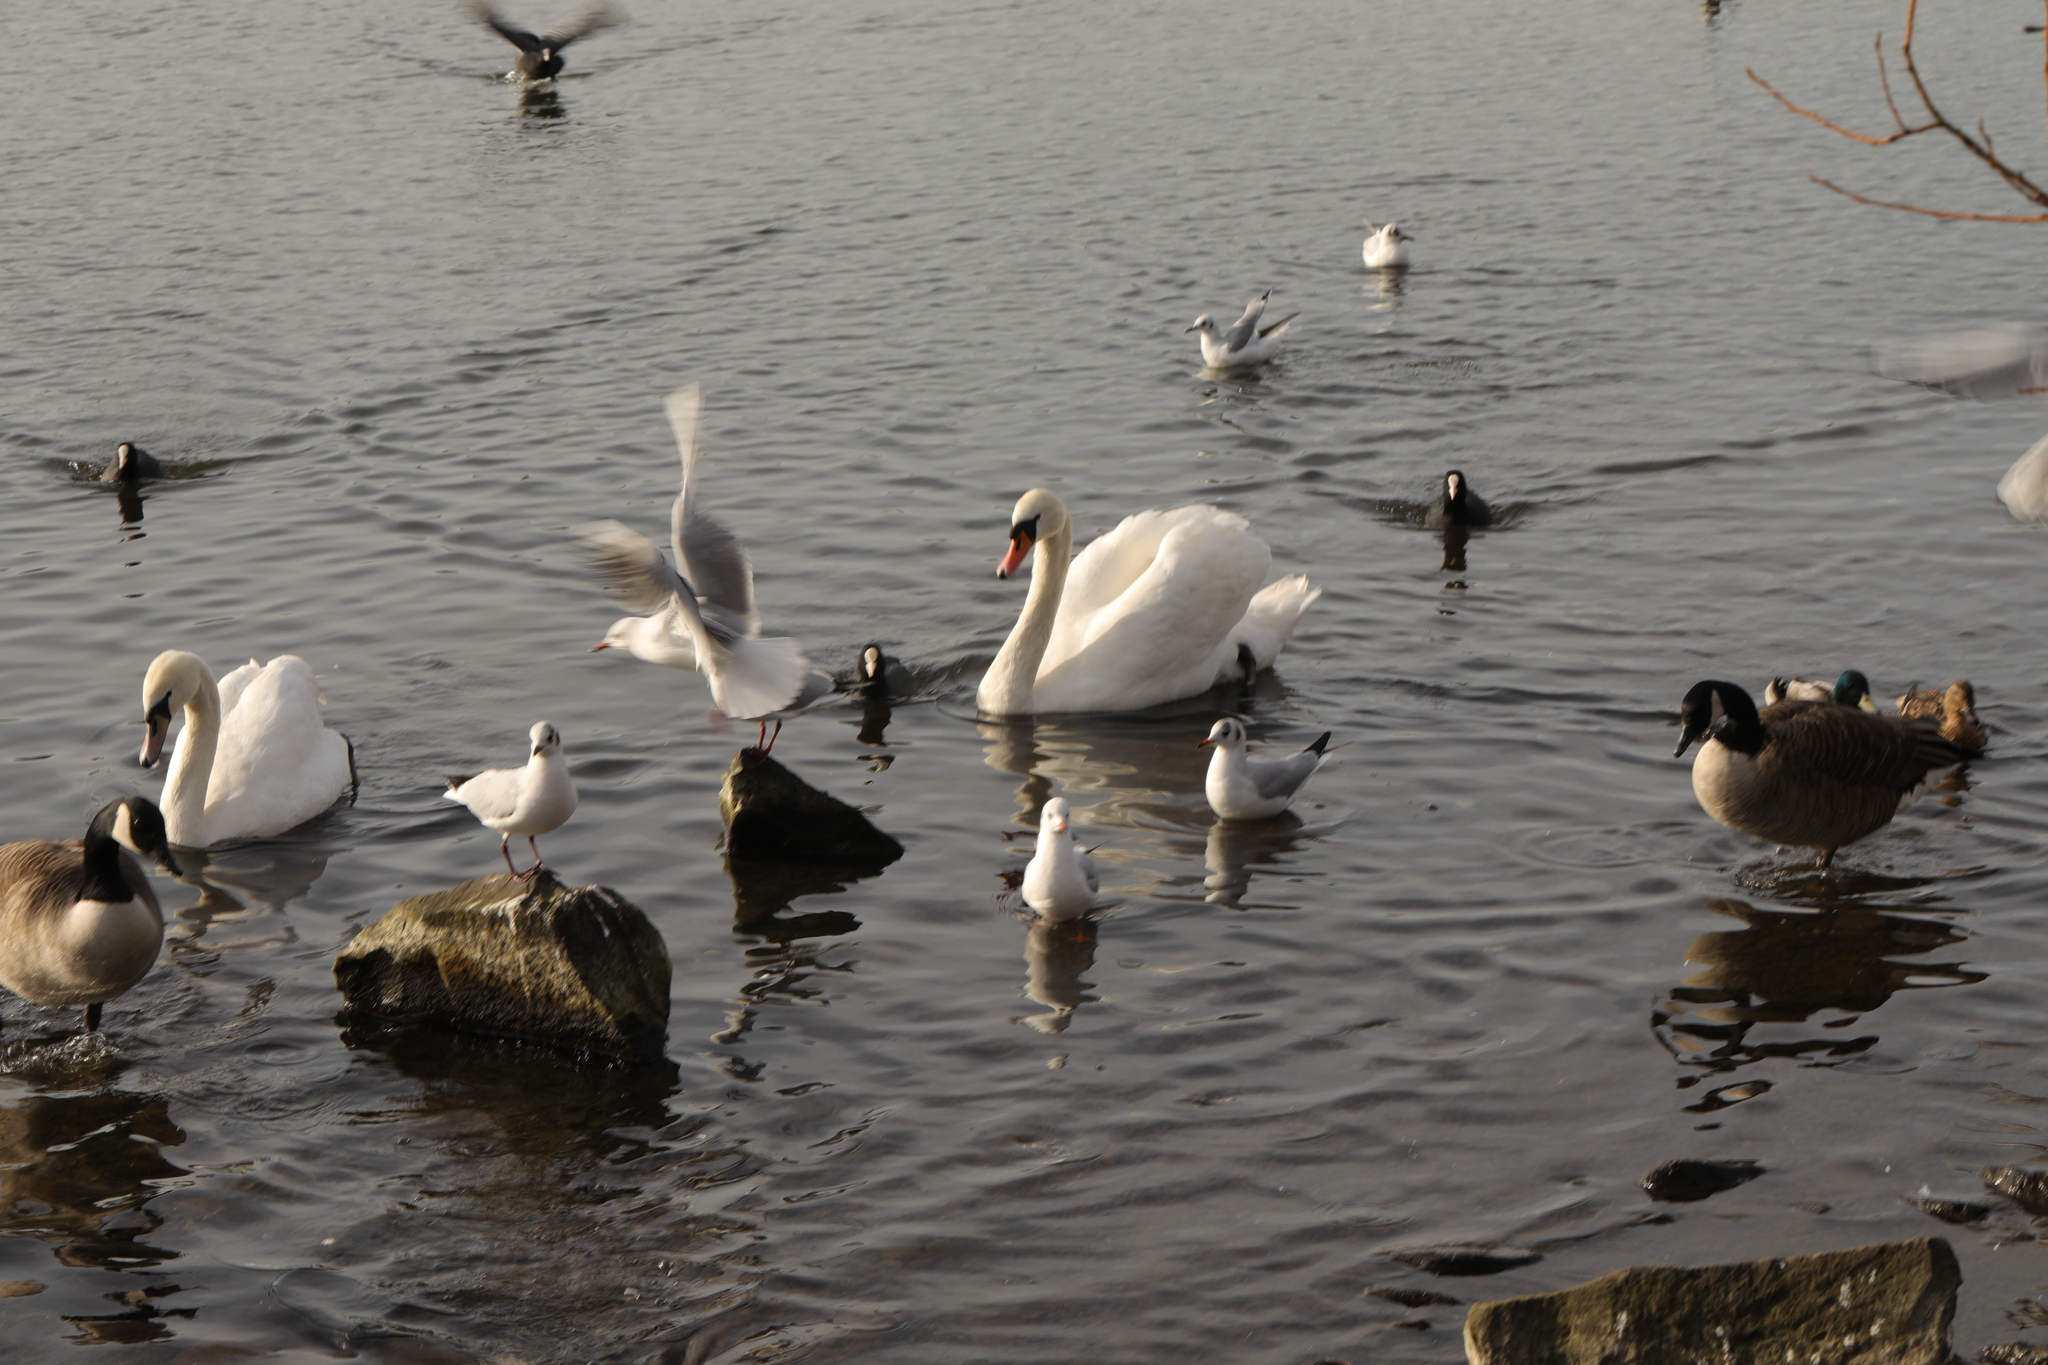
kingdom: Animalia
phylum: Chordata
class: Aves
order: Anseriformes
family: Anatidae
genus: Cygnus
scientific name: Cygnus olor
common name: Mute swan
